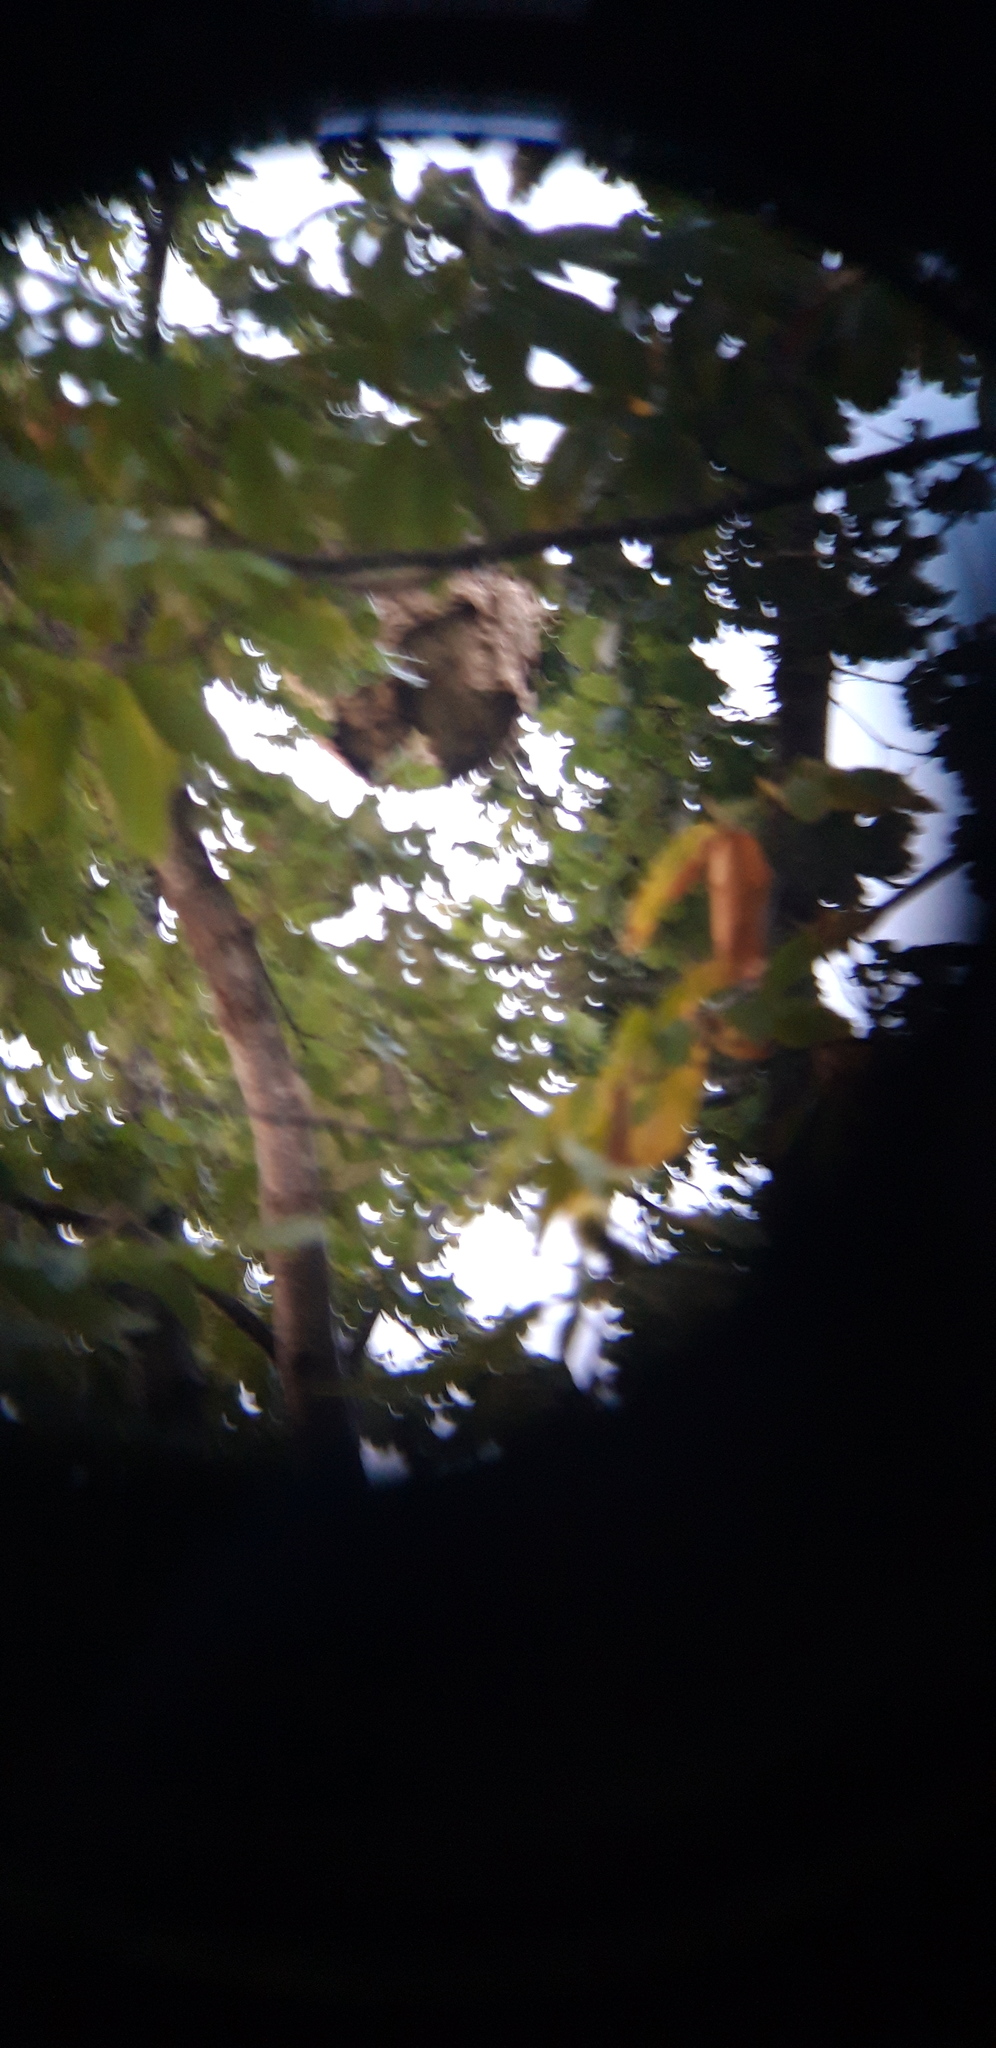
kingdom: Animalia
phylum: Arthropoda
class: Insecta
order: Hymenoptera
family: Vespidae
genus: Vespa
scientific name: Vespa velutina
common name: Asian hornet
